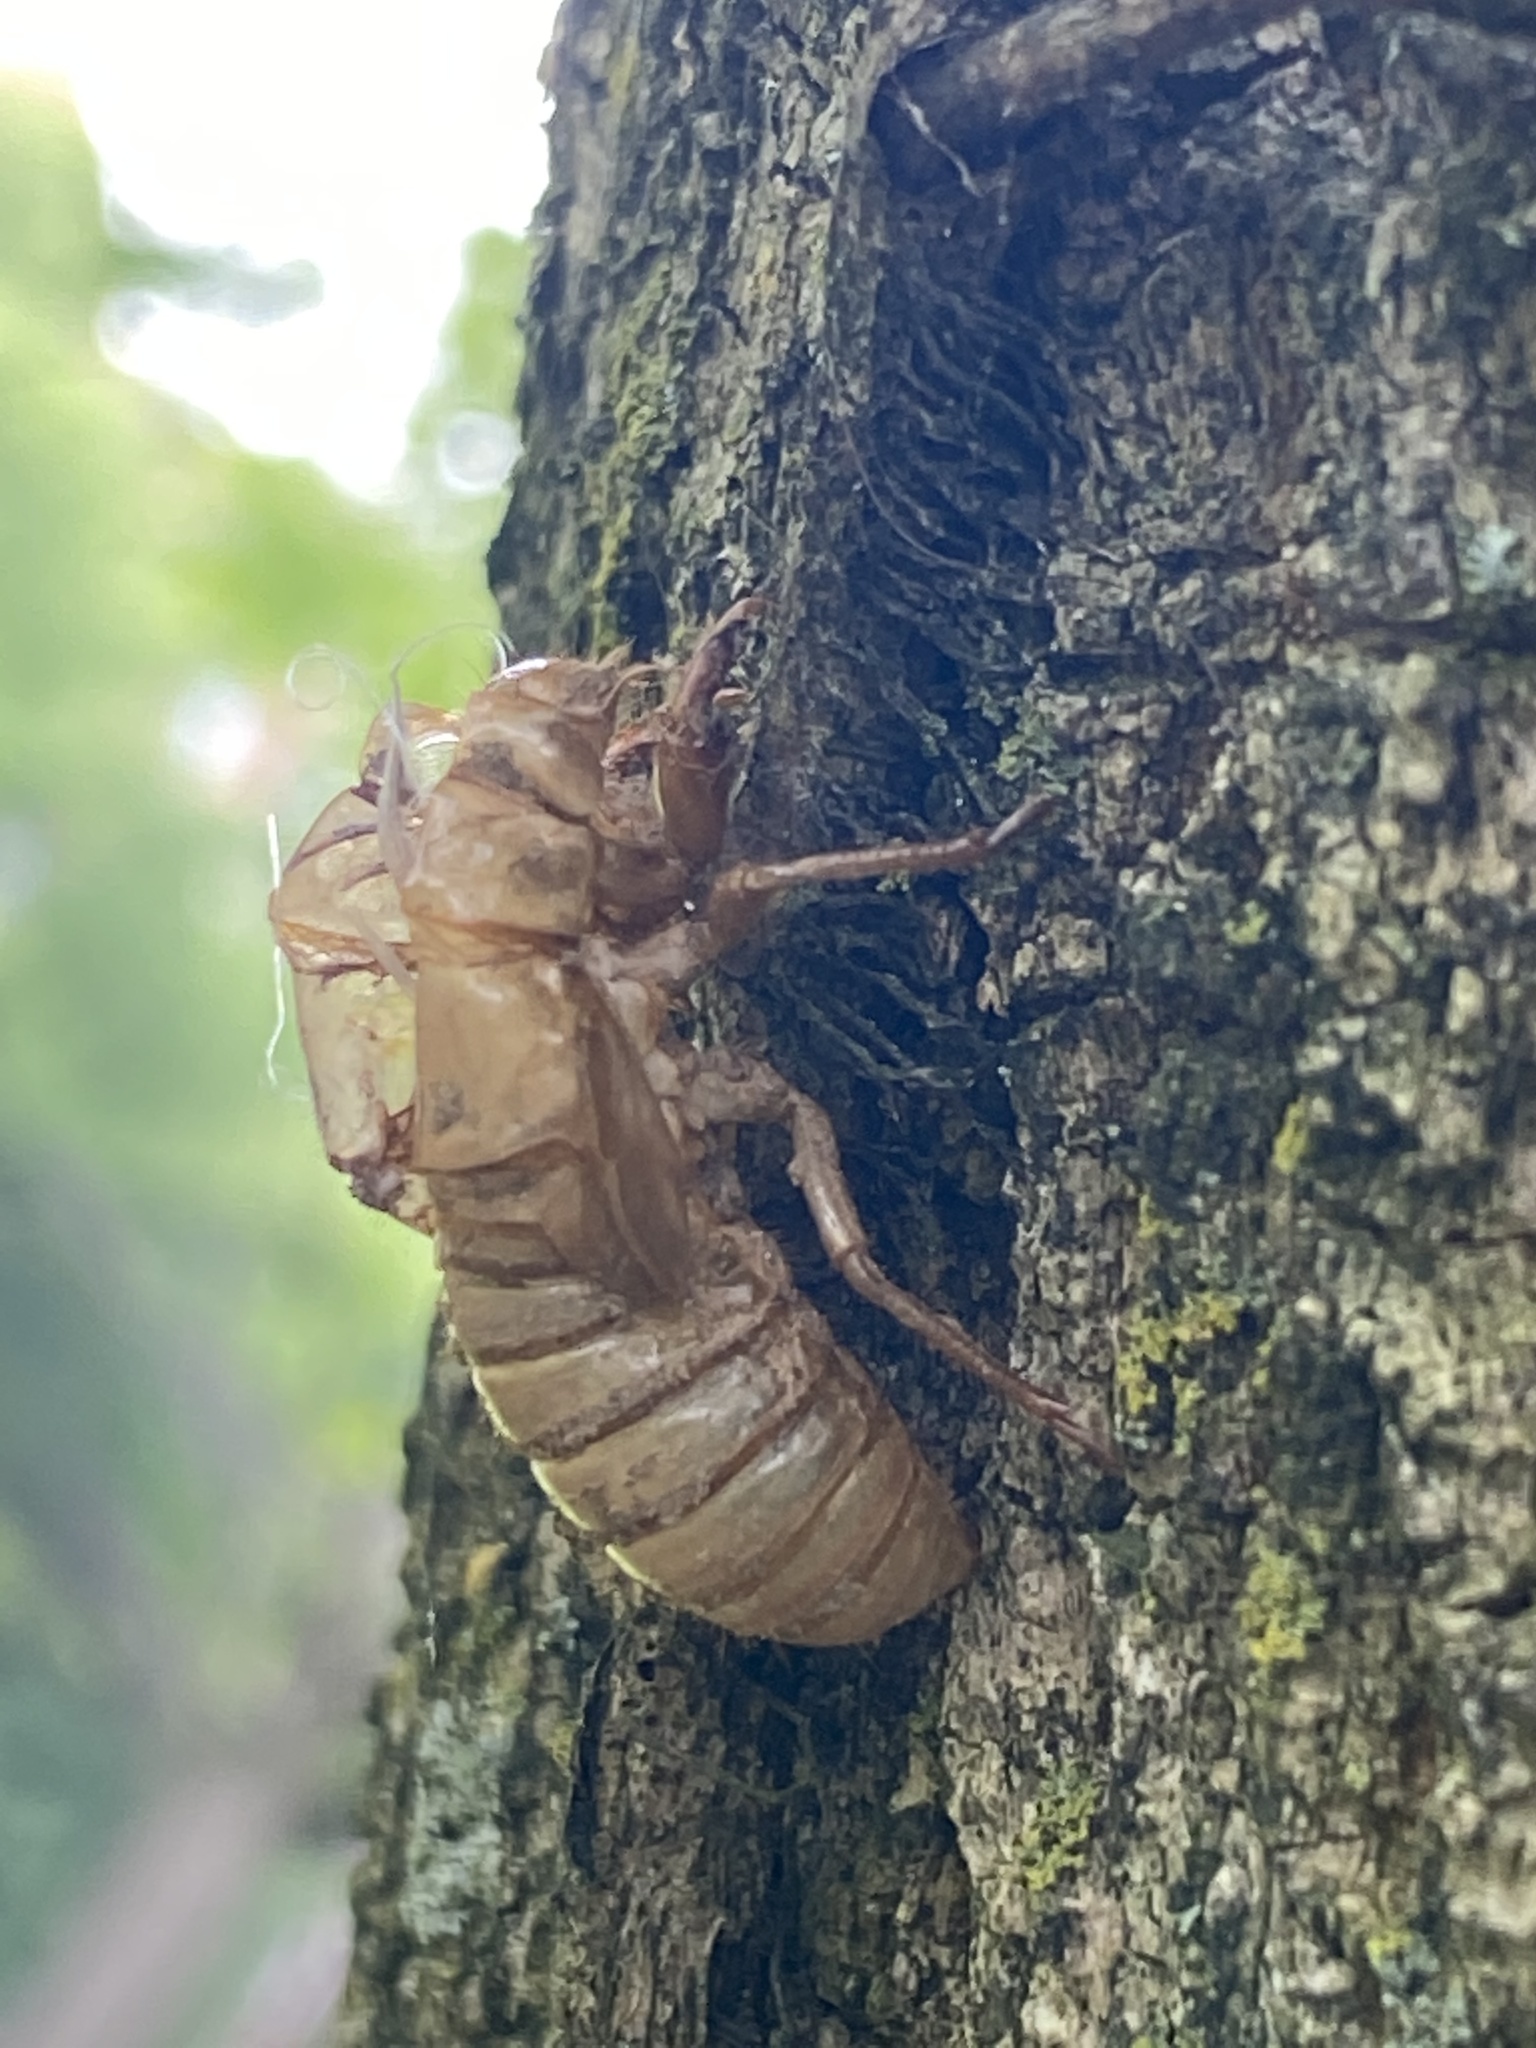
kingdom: Animalia
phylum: Arthropoda
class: Insecta
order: Hemiptera
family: Cicadidae
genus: Magicicada
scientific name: Magicicada
